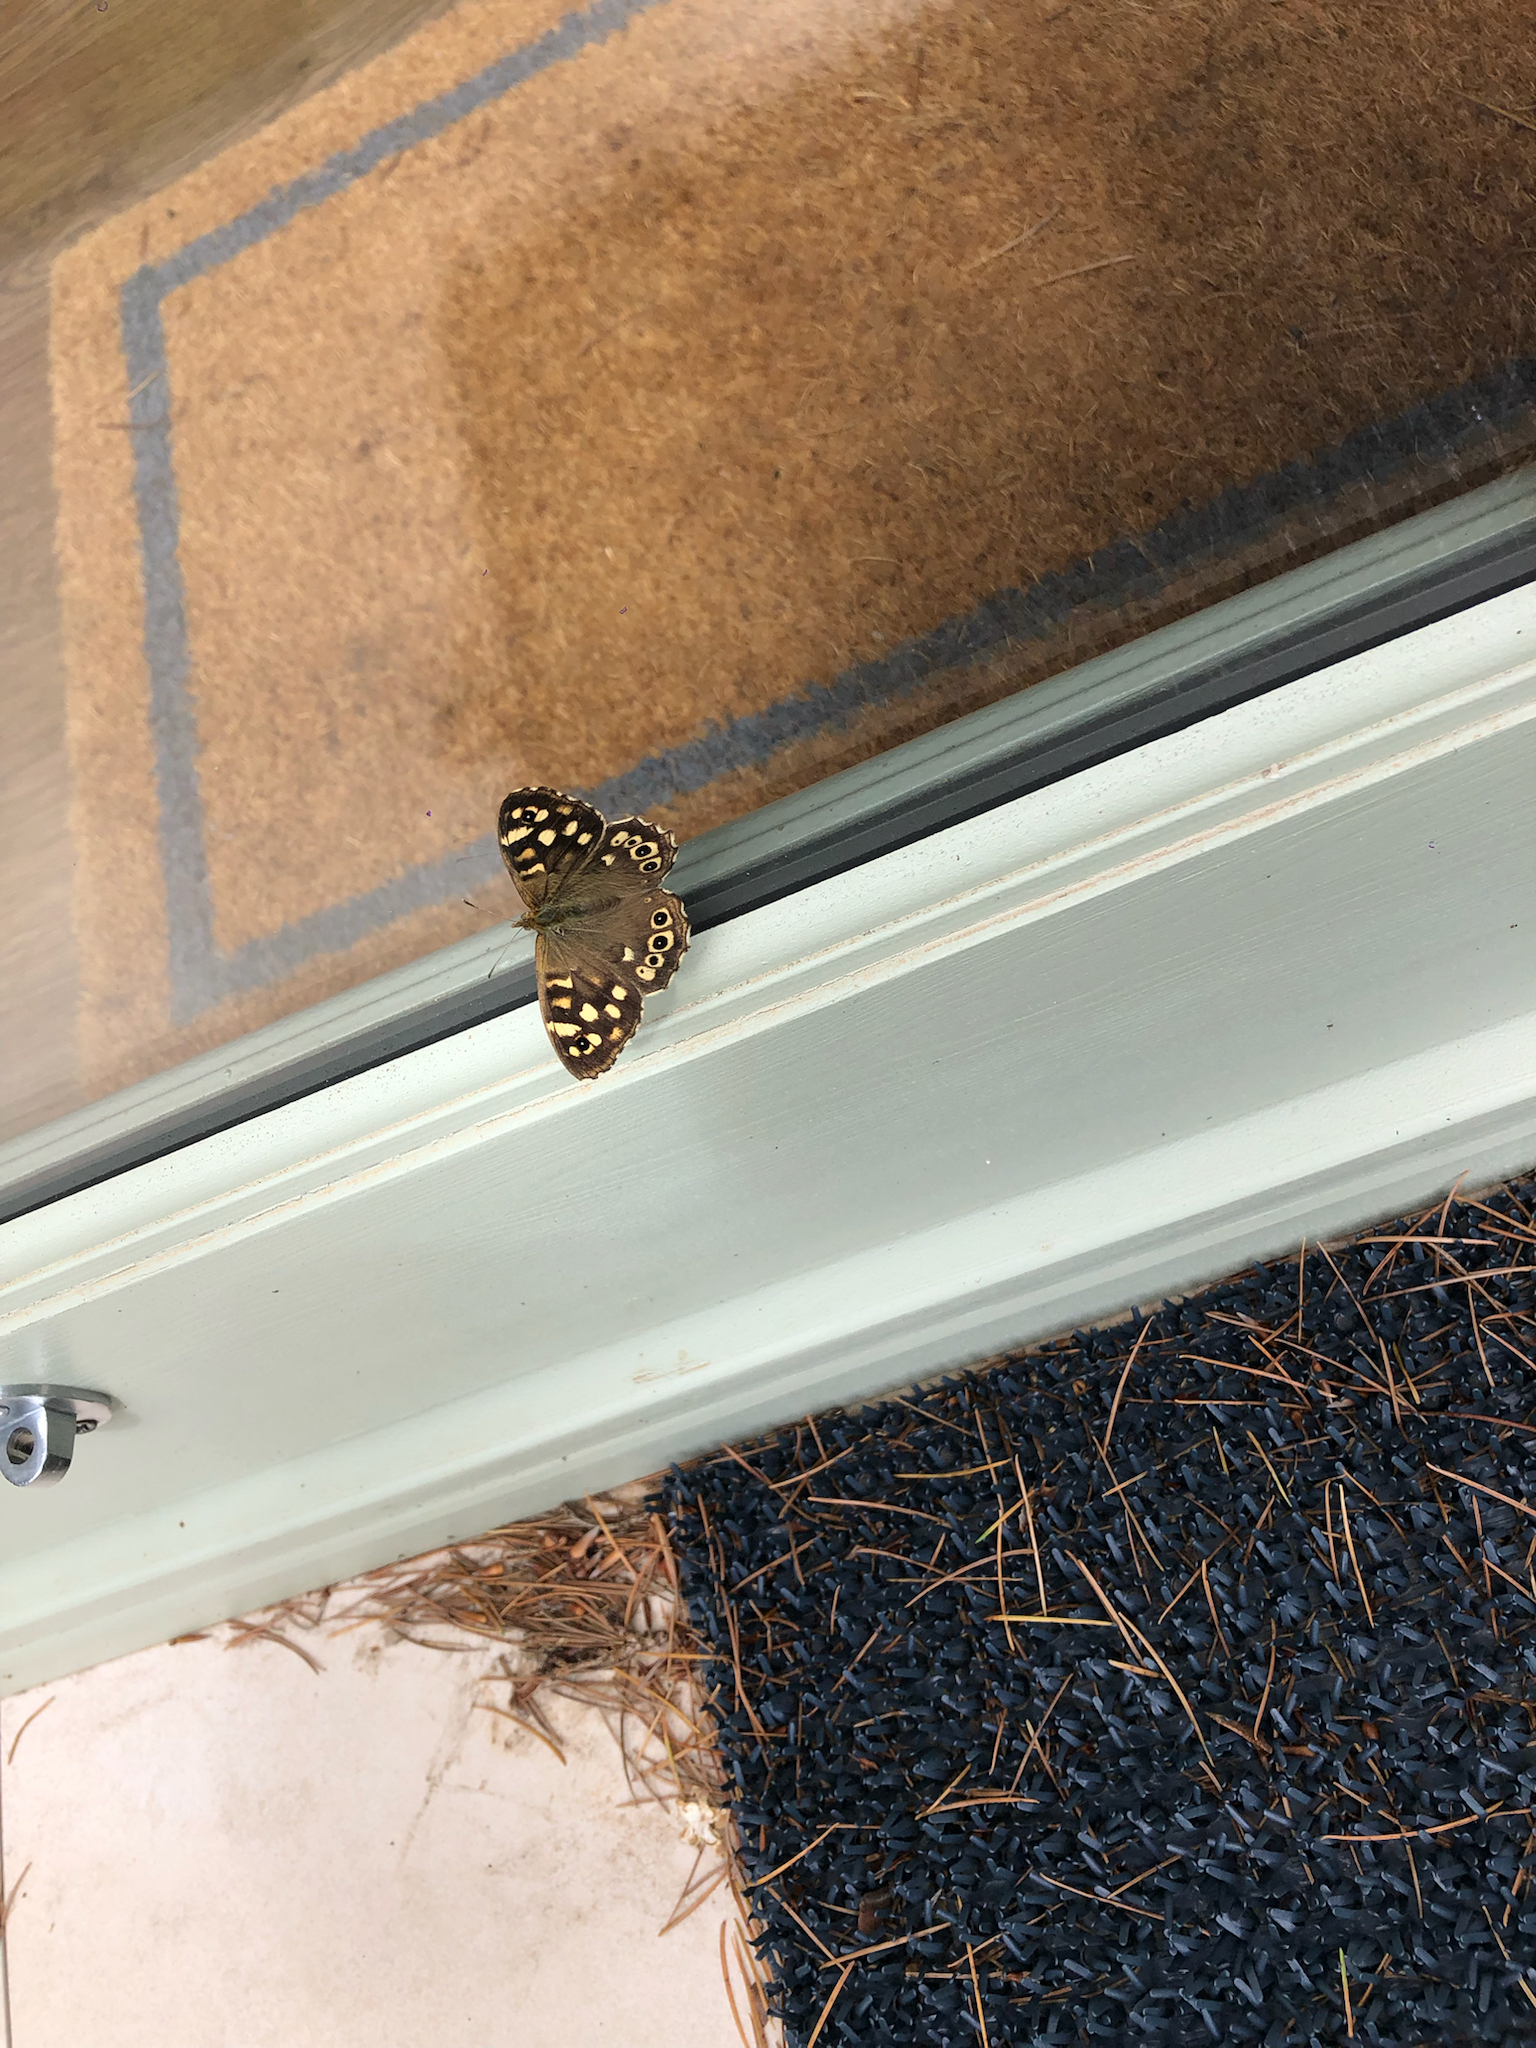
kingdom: Animalia
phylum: Arthropoda
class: Insecta
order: Lepidoptera
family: Nymphalidae
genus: Pararge
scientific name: Pararge aegeria
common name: Speckled wood
